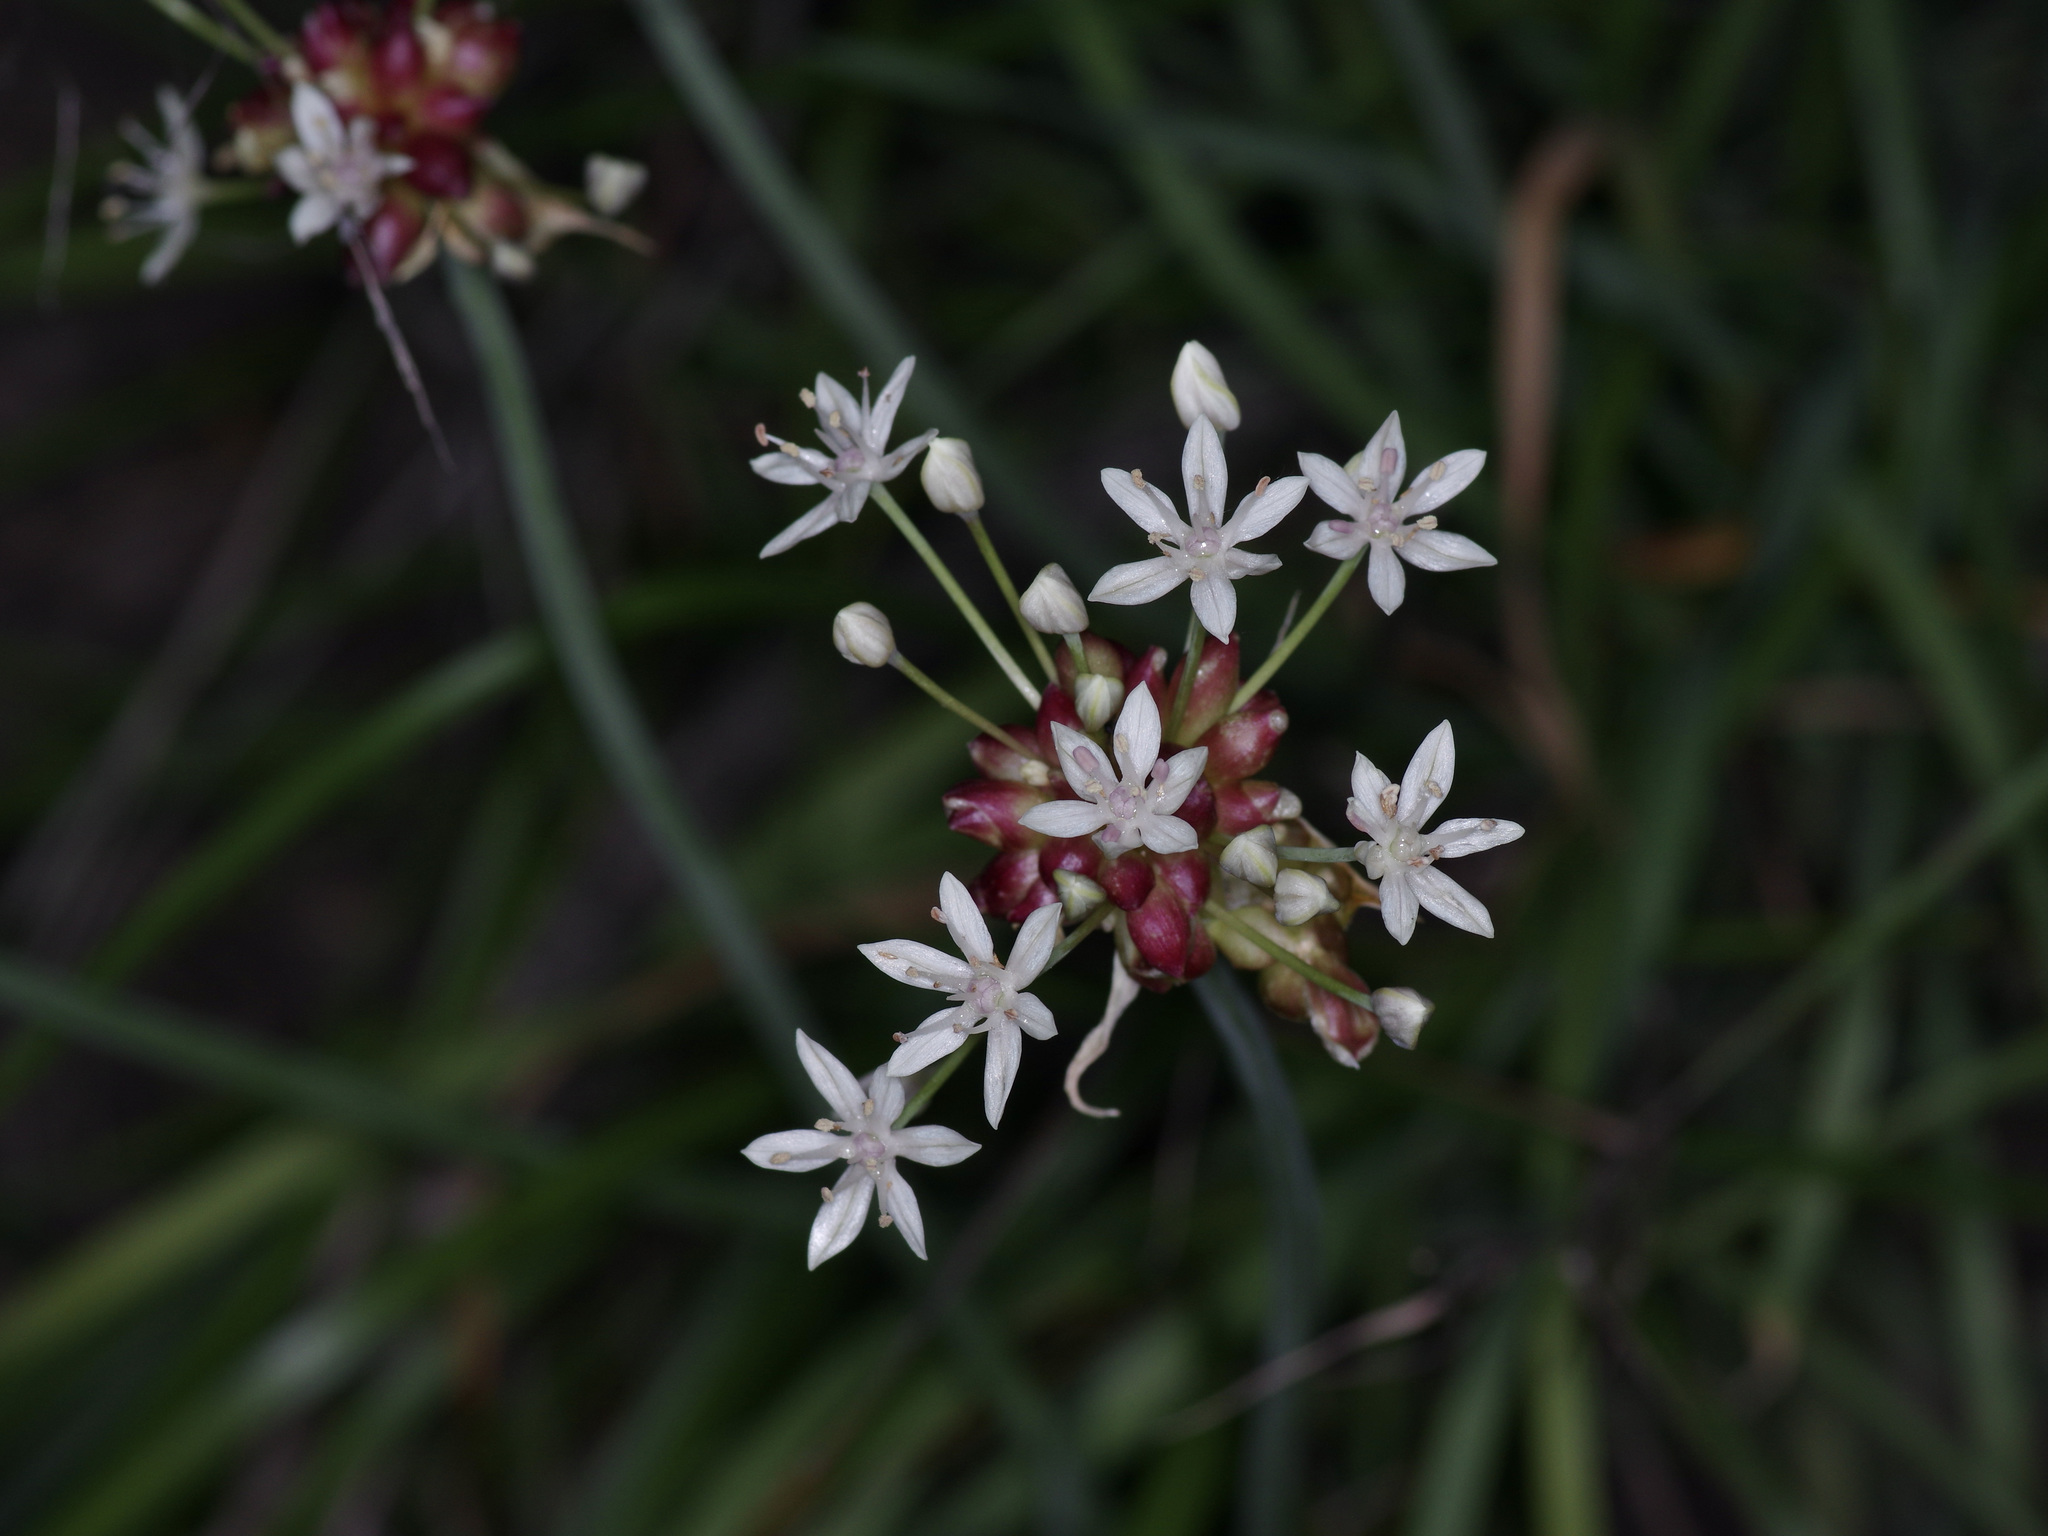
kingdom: Plantae
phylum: Tracheophyta
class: Liliopsida
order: Asparagales
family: Amaryllidaceae
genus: Allium
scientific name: Allium canadense
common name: Meadow garlic
